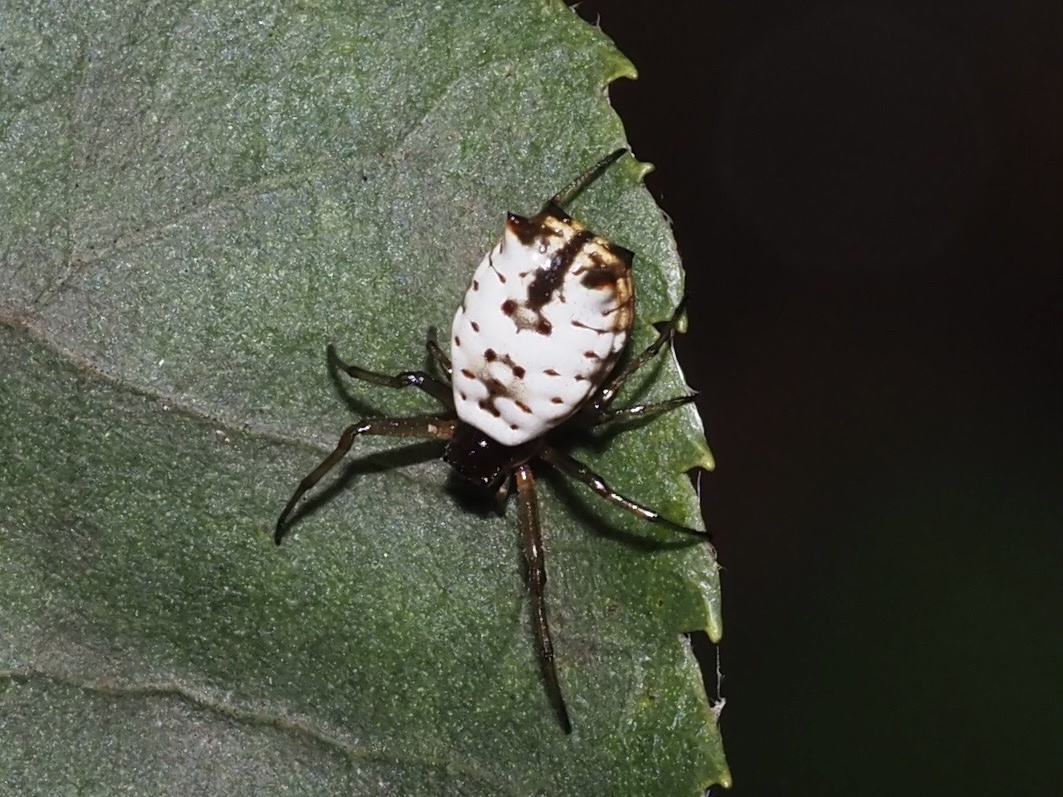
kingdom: Animalia
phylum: Arthropoda
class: Arachnida
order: Araneae
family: Araneidae
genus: Micrathena
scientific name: Micrathena mitrata
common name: Orb weavers
